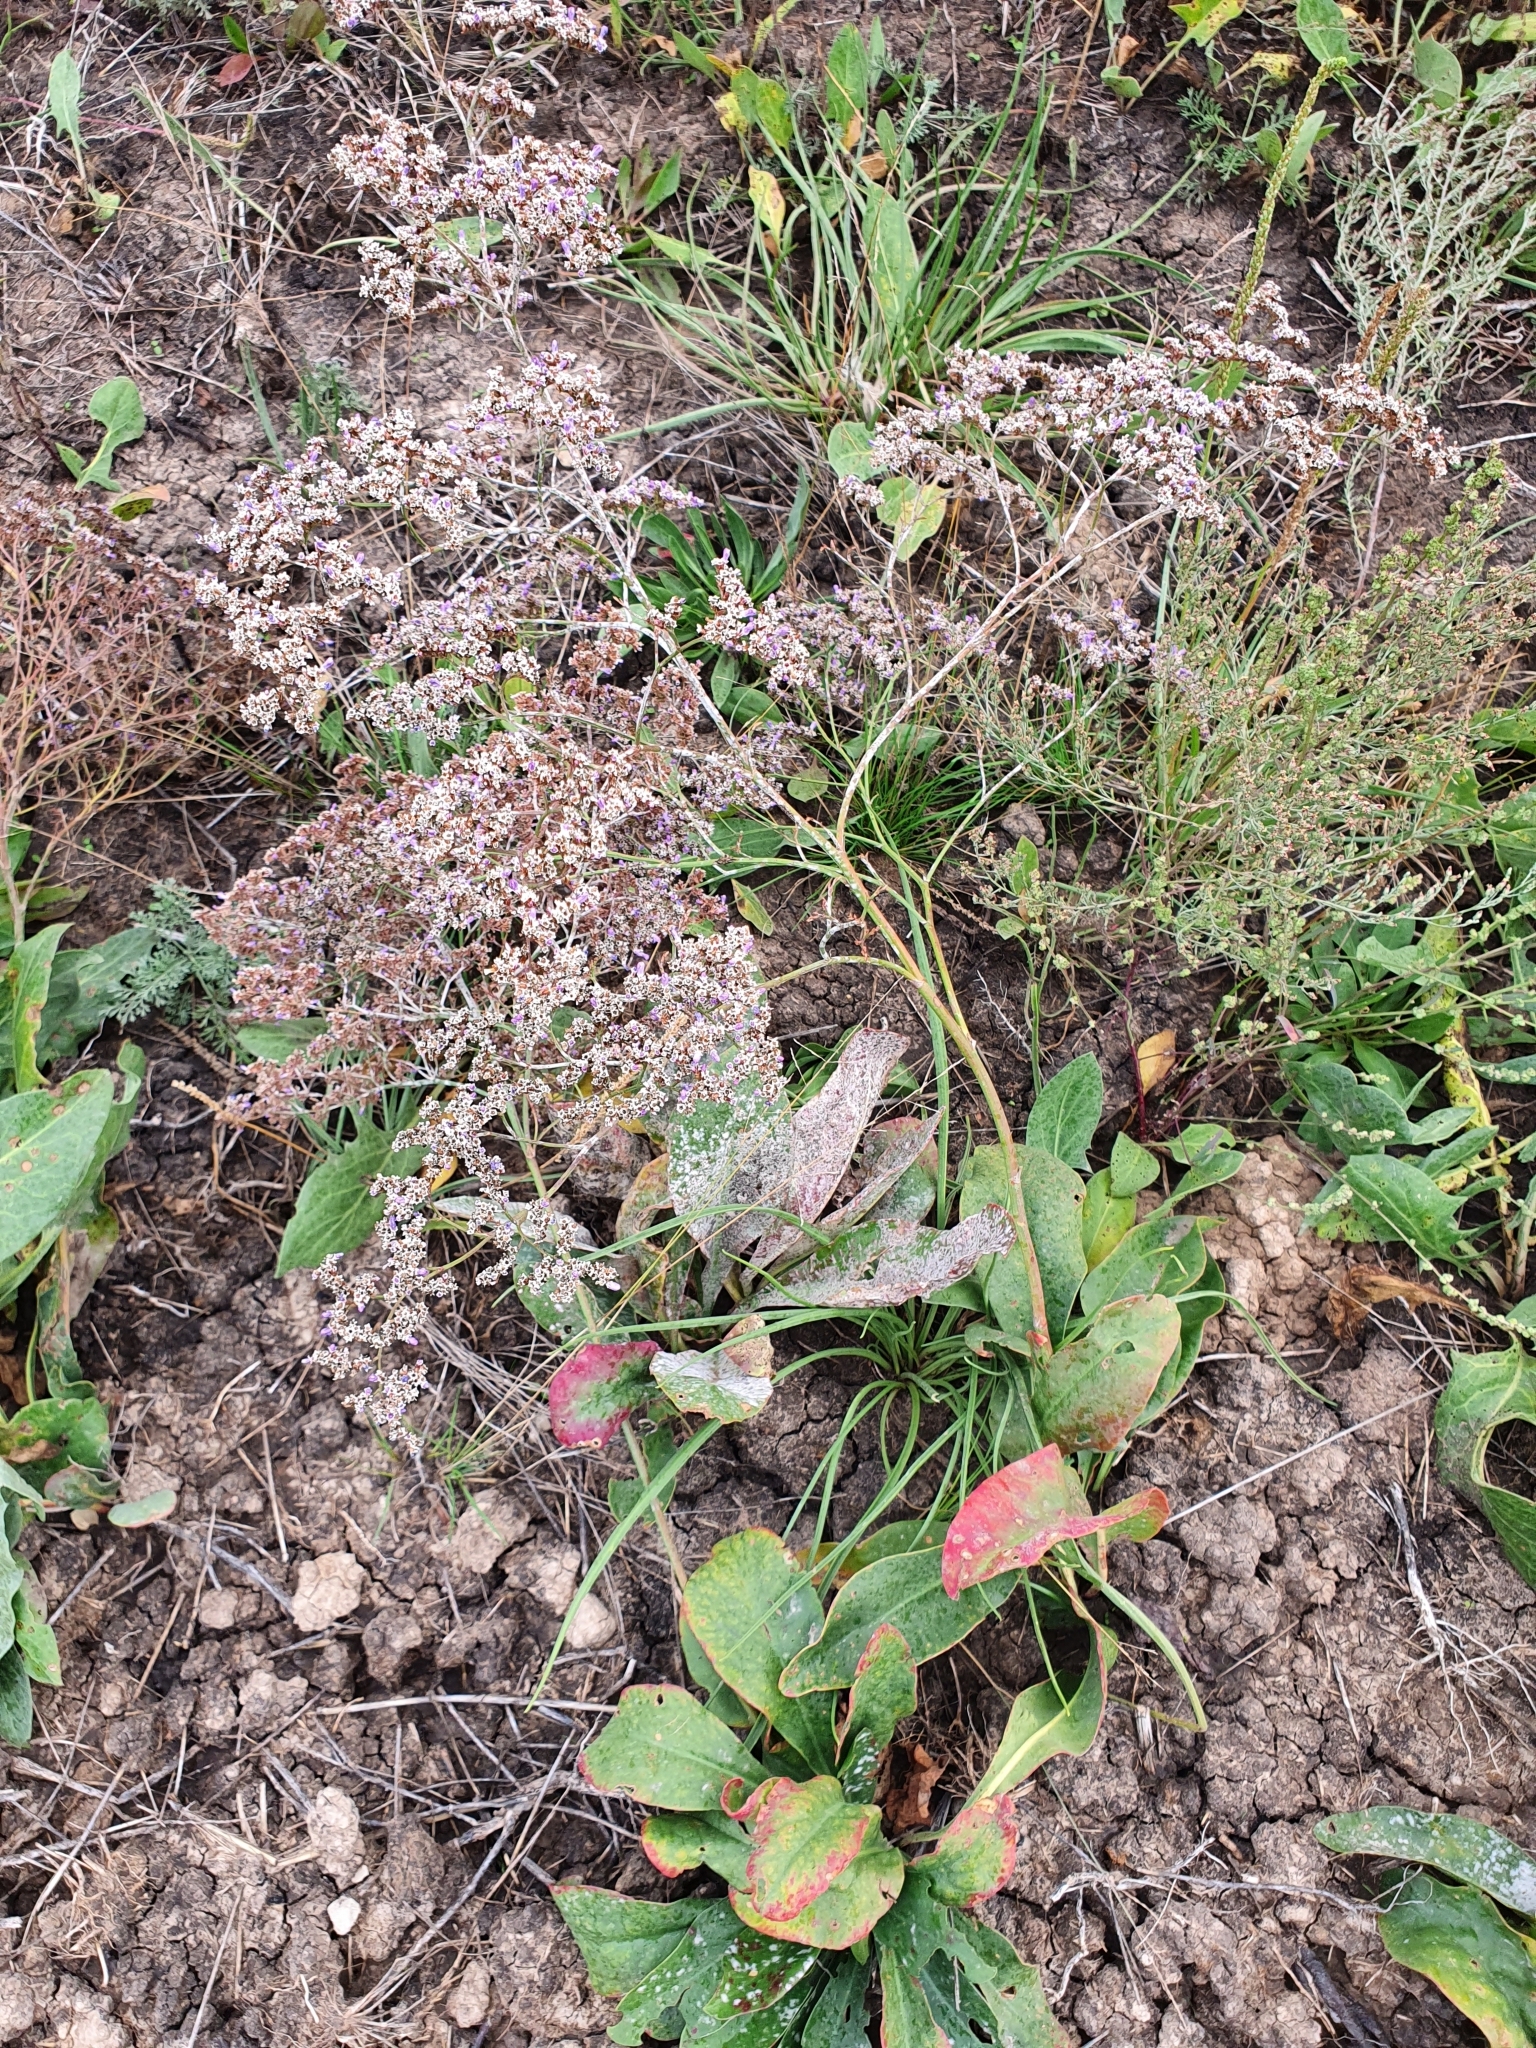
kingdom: Plantae
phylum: Tracheophyta
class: Magnoliopsida
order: Caryophyllales
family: Plumbaginaceae
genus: Limonium
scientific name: Limonium gmelini
